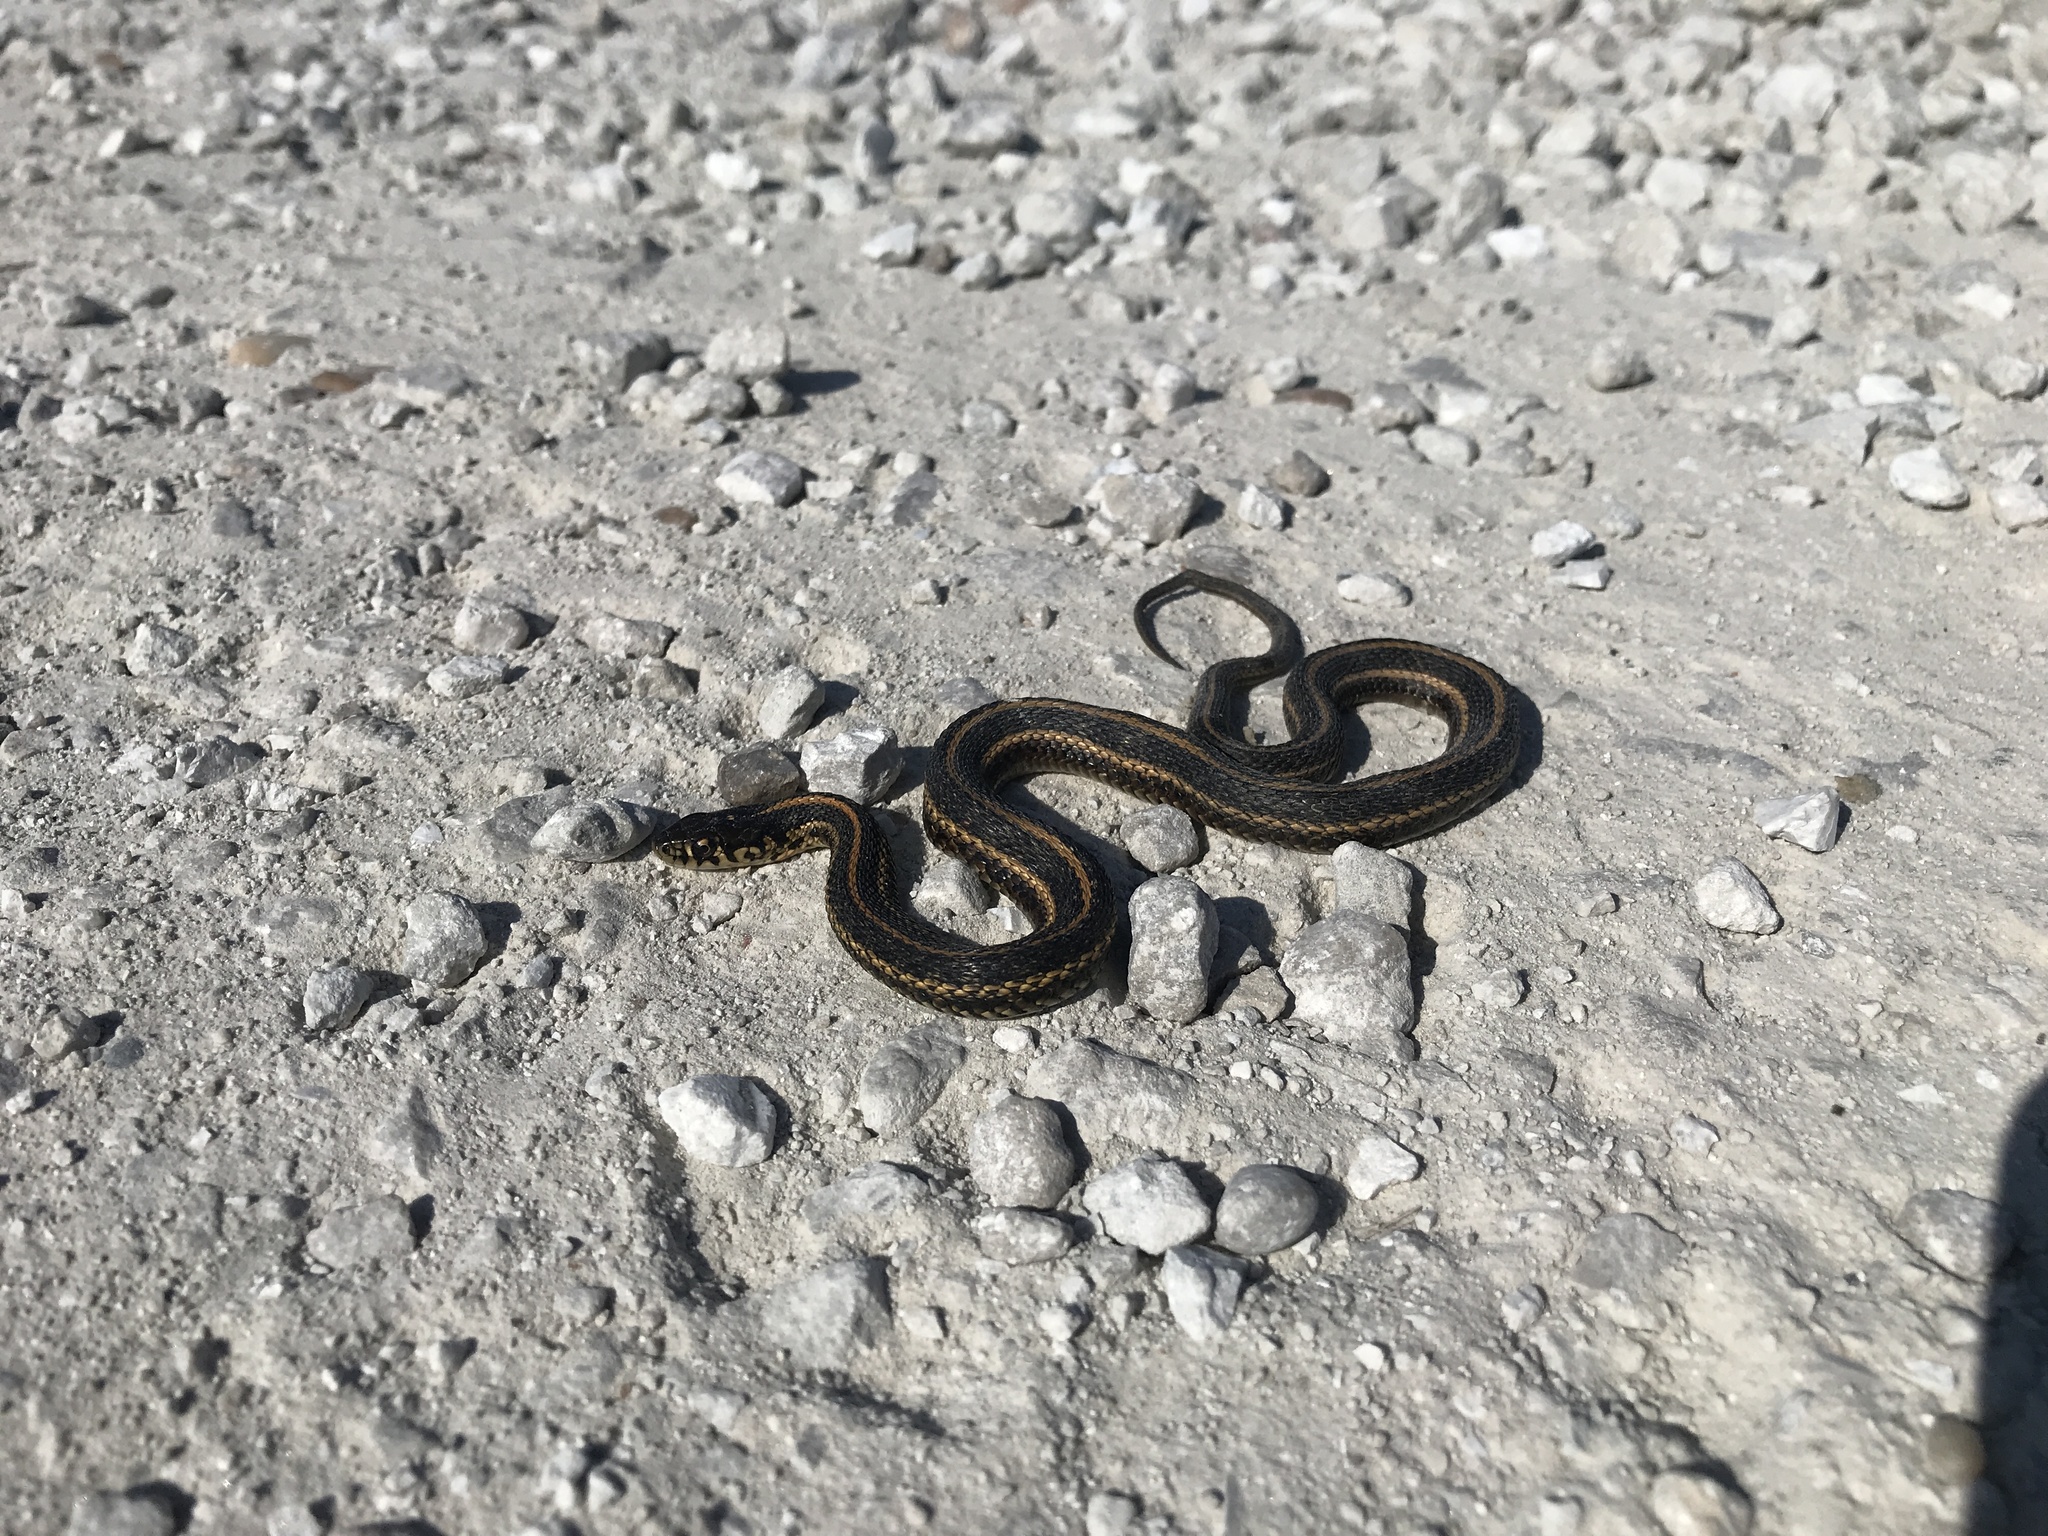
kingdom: Animalia
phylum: Chordata
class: Squamata
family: Colubridae
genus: Thamnophis
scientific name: Thamnophis radix
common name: Plains garter snake
